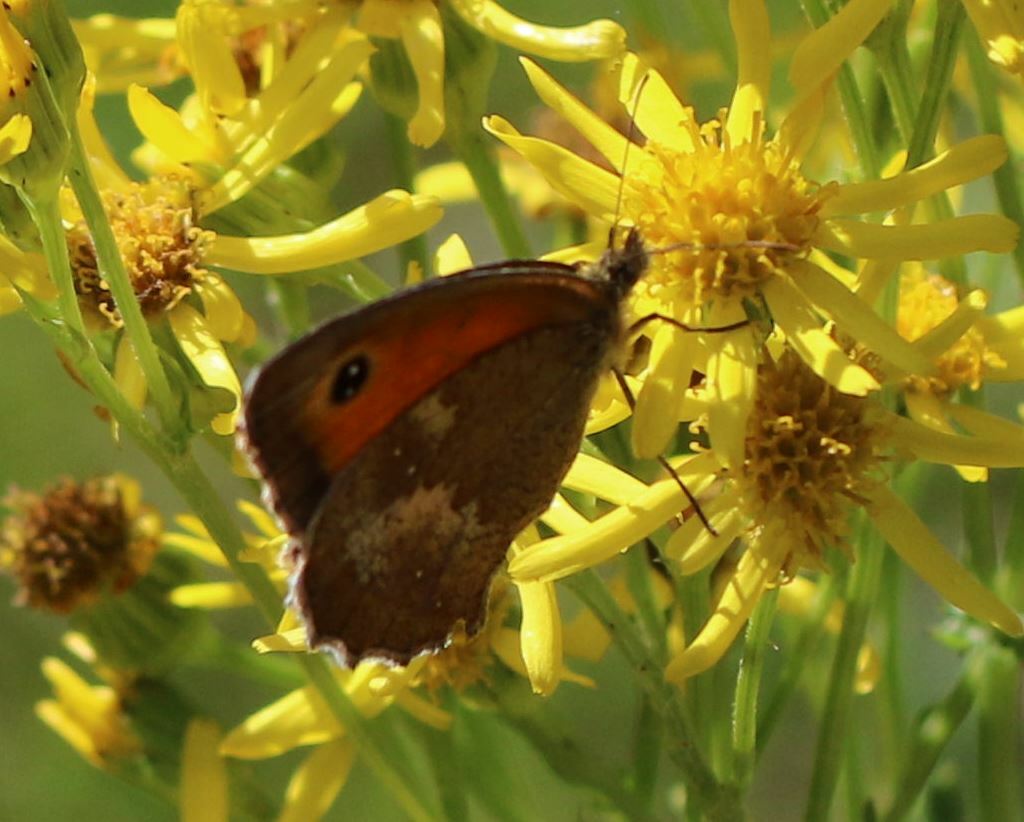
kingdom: Animalia
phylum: Arthropoda
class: Insecta
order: Lepidoptera
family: Nymphalidae
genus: Pyronia
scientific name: Pyronia tithonus
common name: Gatekeeper
